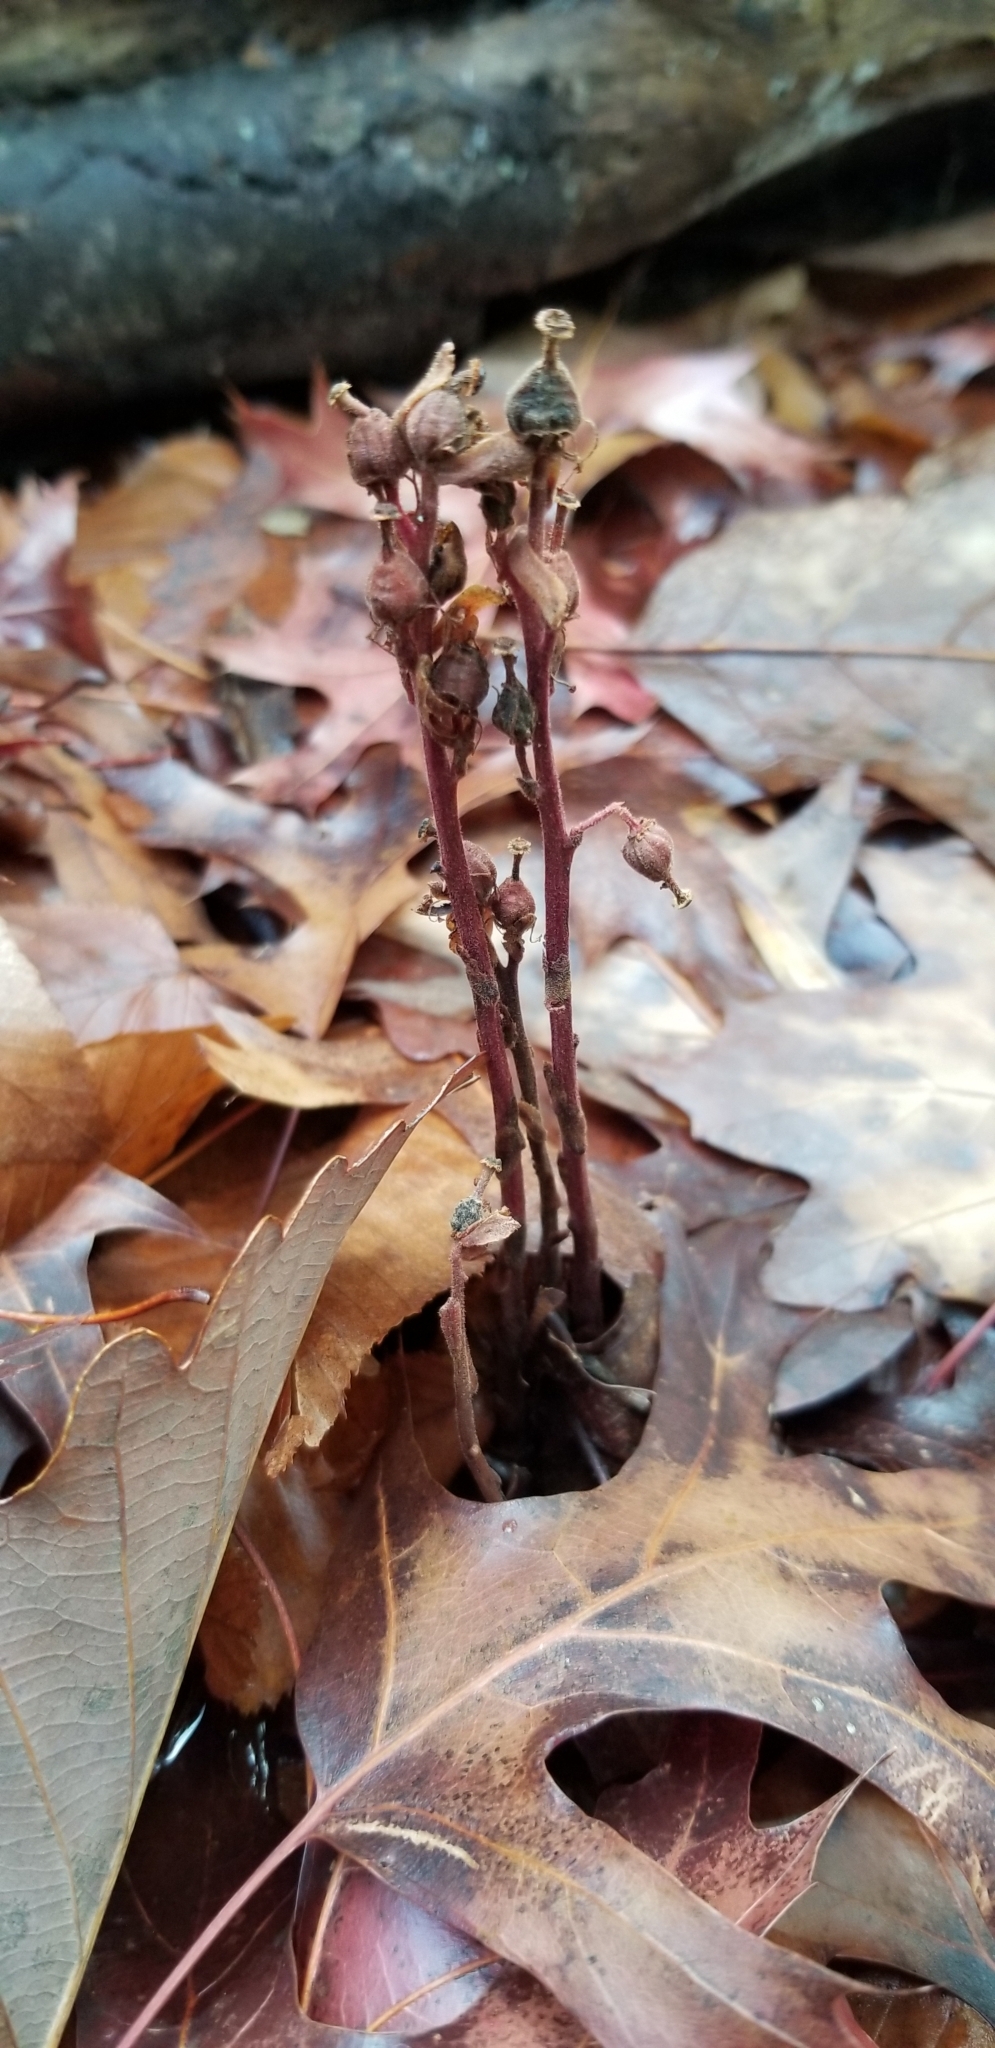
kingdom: Plantae
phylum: Tracheophyta
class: Magnoliopsida
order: Ericales
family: Ericaceae
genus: Hypopitys
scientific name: Hypopitys monotropa
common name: Yellow bird's-nest
